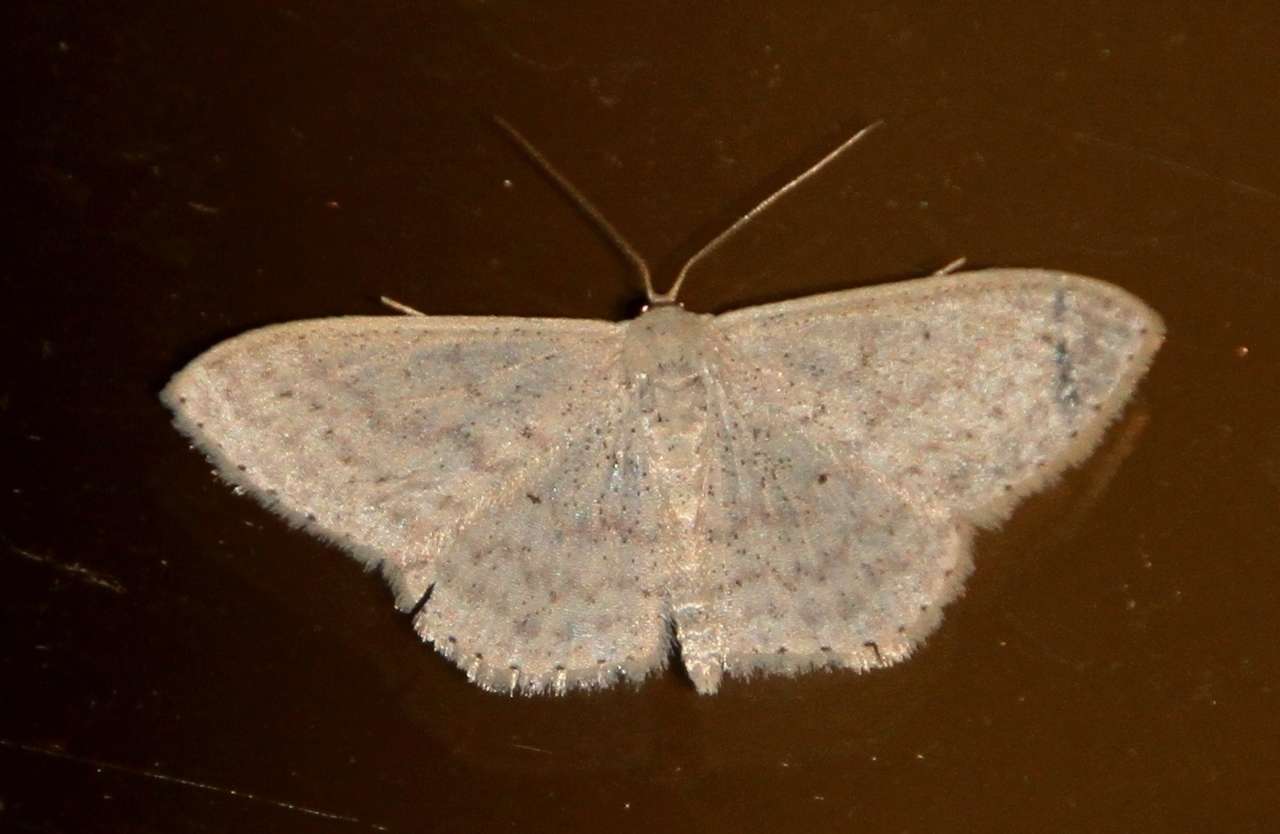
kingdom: Animalia
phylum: Arthropoda
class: Insecta
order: Lepidoptera
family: Geometridae
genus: Scopula
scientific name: Scopula optivata
